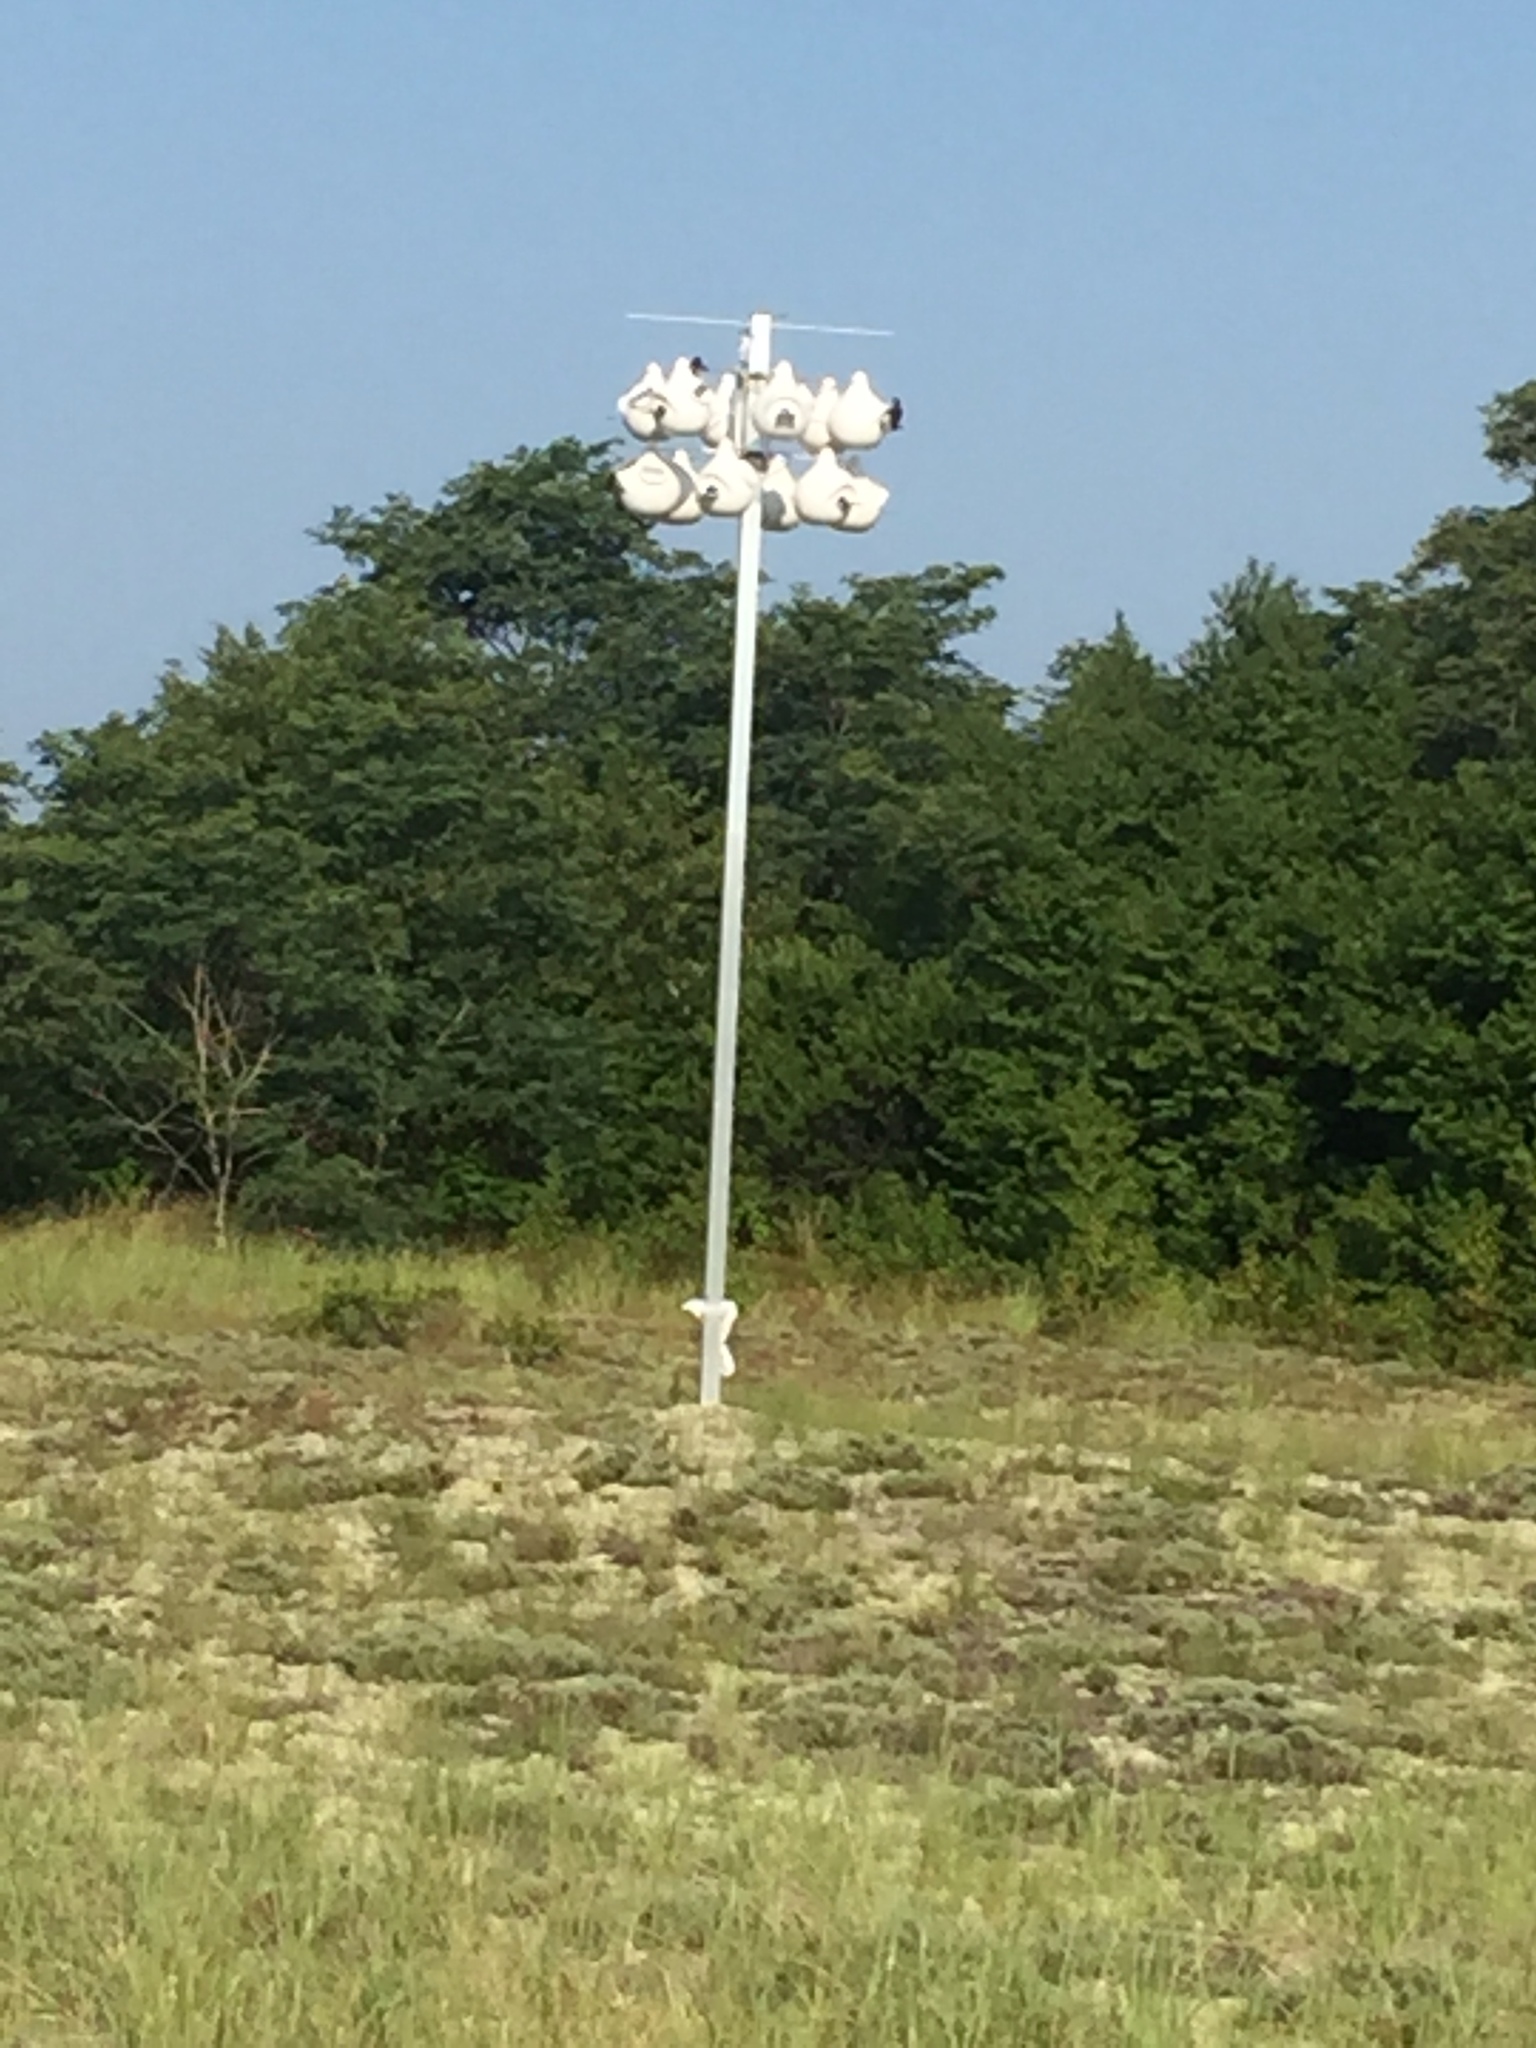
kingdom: Animalia
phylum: Chordata
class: Aves
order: Passeriformes
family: Hirundinidae
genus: Progne
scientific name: Progne subis
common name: Purple martin
